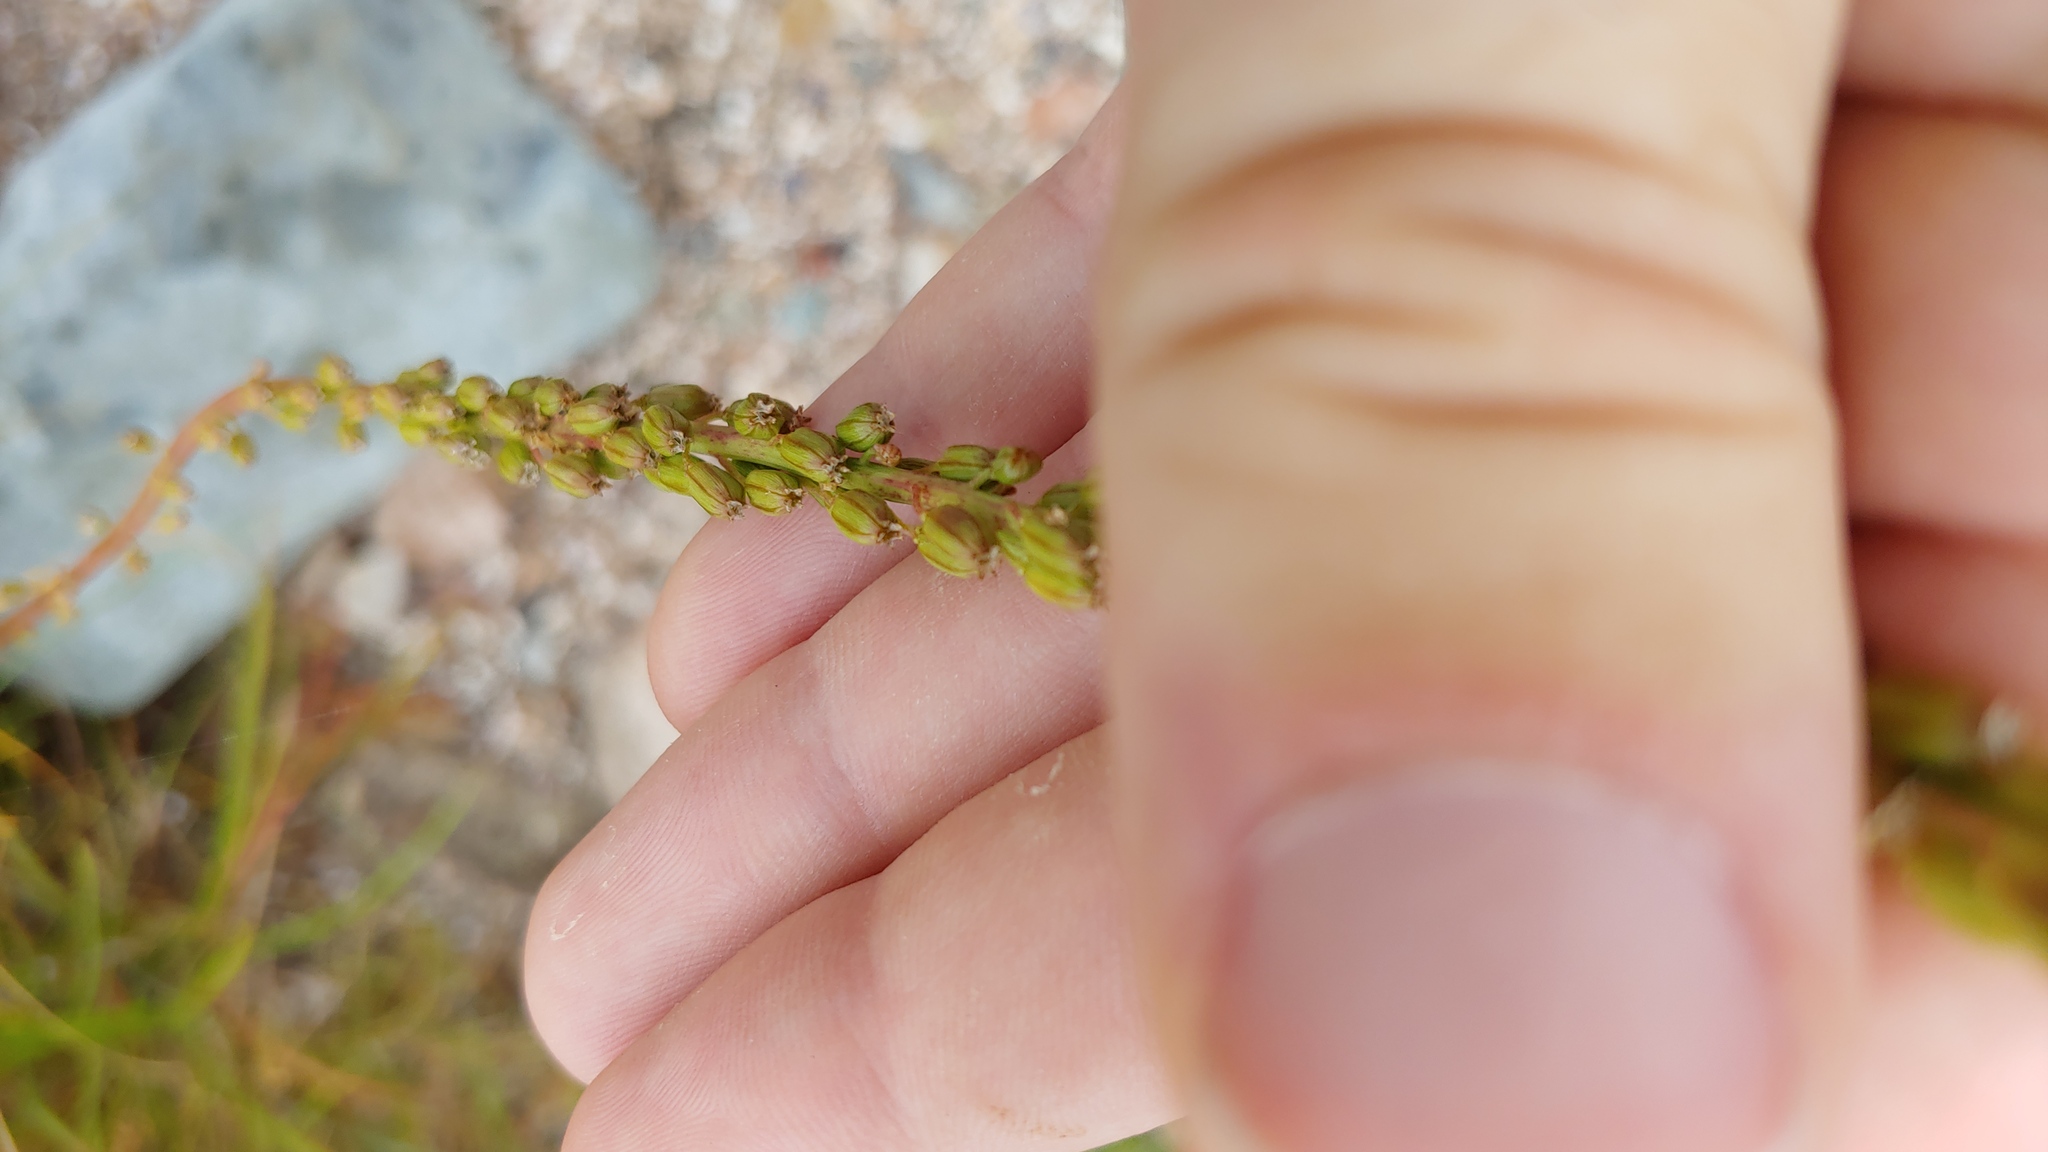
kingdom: Plantae
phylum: Tracheophyta
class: Liliopsida
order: Alismatales
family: Juncaginaceae
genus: Triglochin
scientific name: Triglochin maritima
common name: Sea arrowgrass
